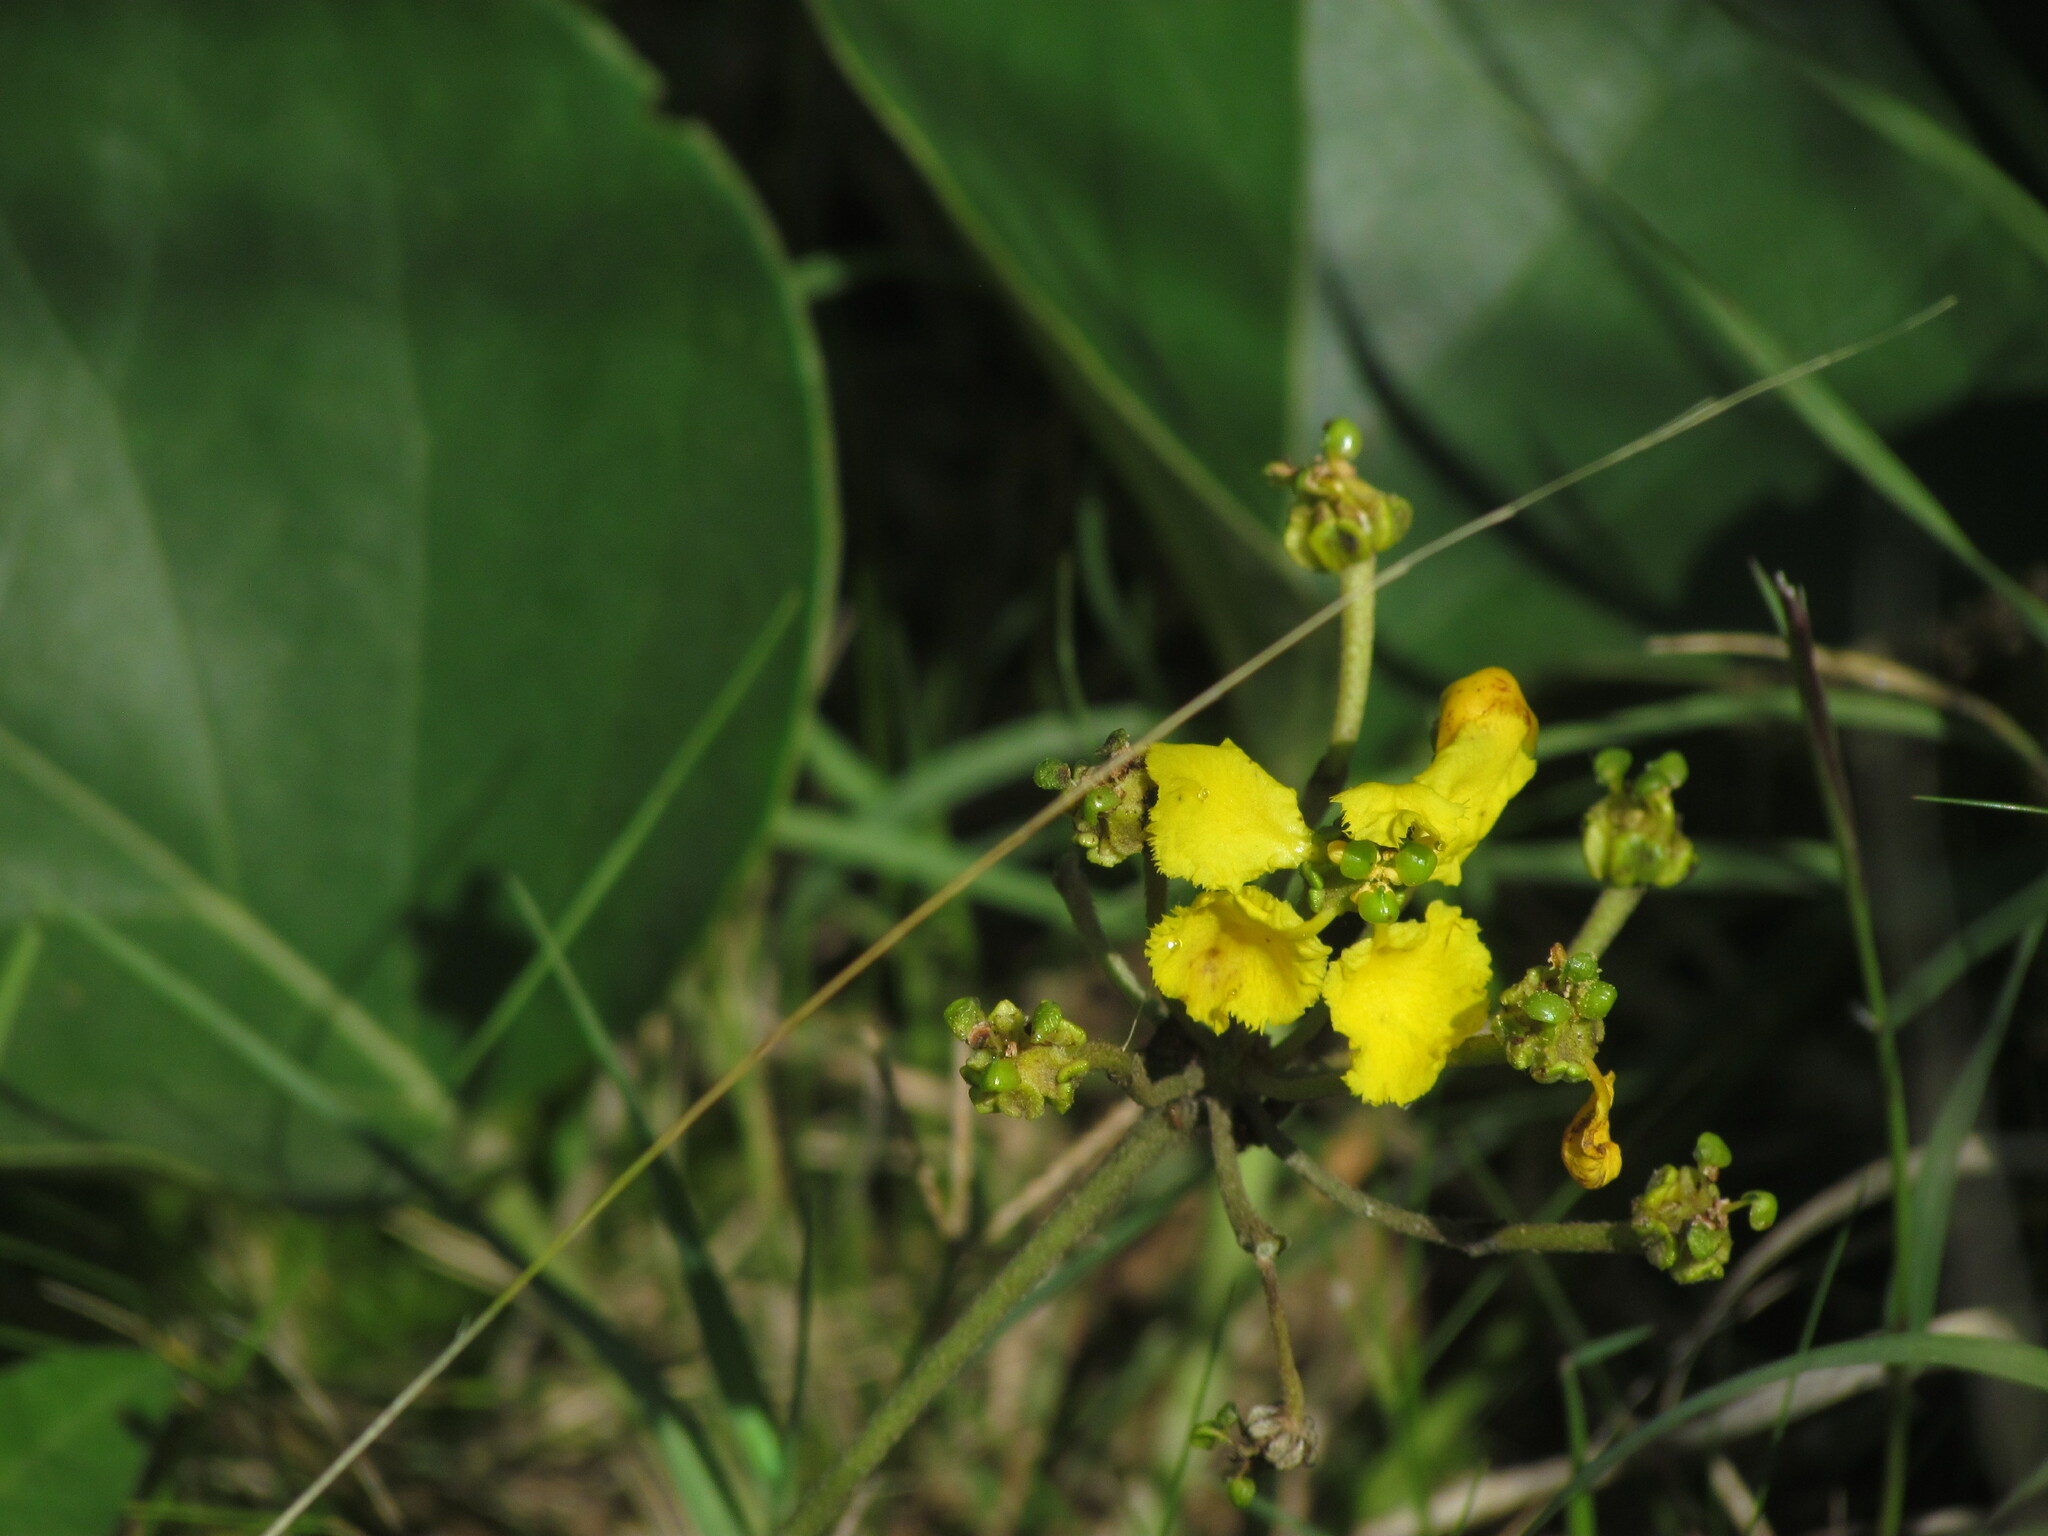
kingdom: Plantae
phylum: Tracheophyta
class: Magnoliopsida
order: Malpighiales
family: Malpighiaceae
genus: Stigmaphyllon
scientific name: Stigmaphyllon bonariense
